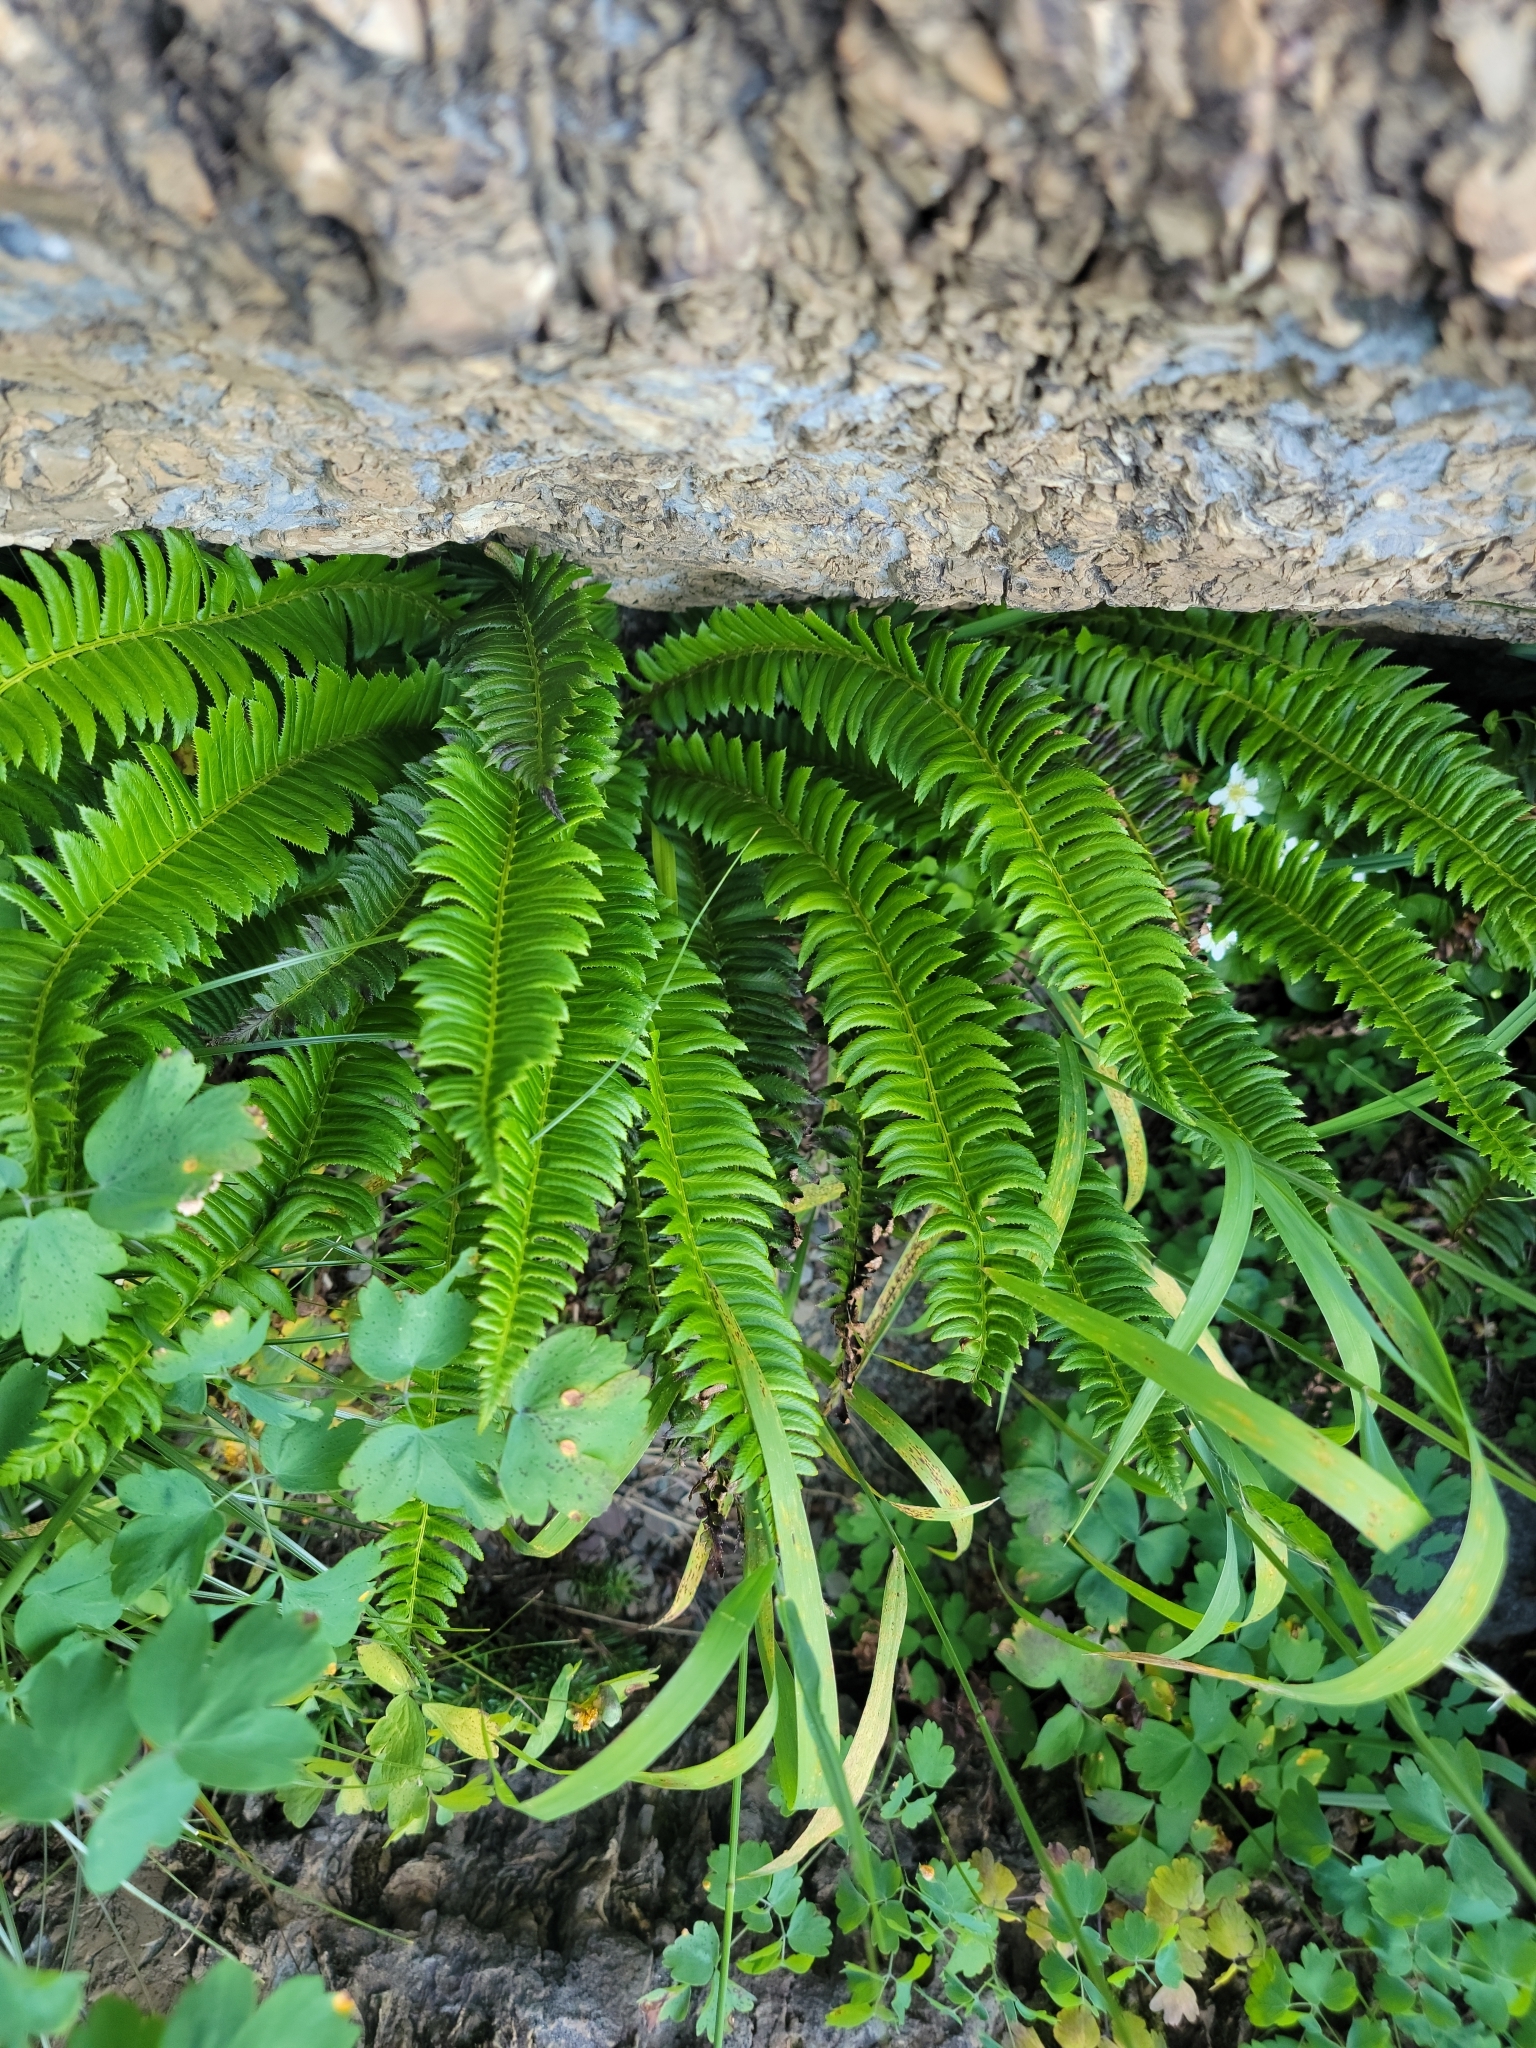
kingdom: Plantae
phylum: Tracheophyta
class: Polypodiopsida
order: Polypodiales
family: Dryopteridaceae
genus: Polystichum
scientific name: Polystichum lonchitis
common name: Holly fern
